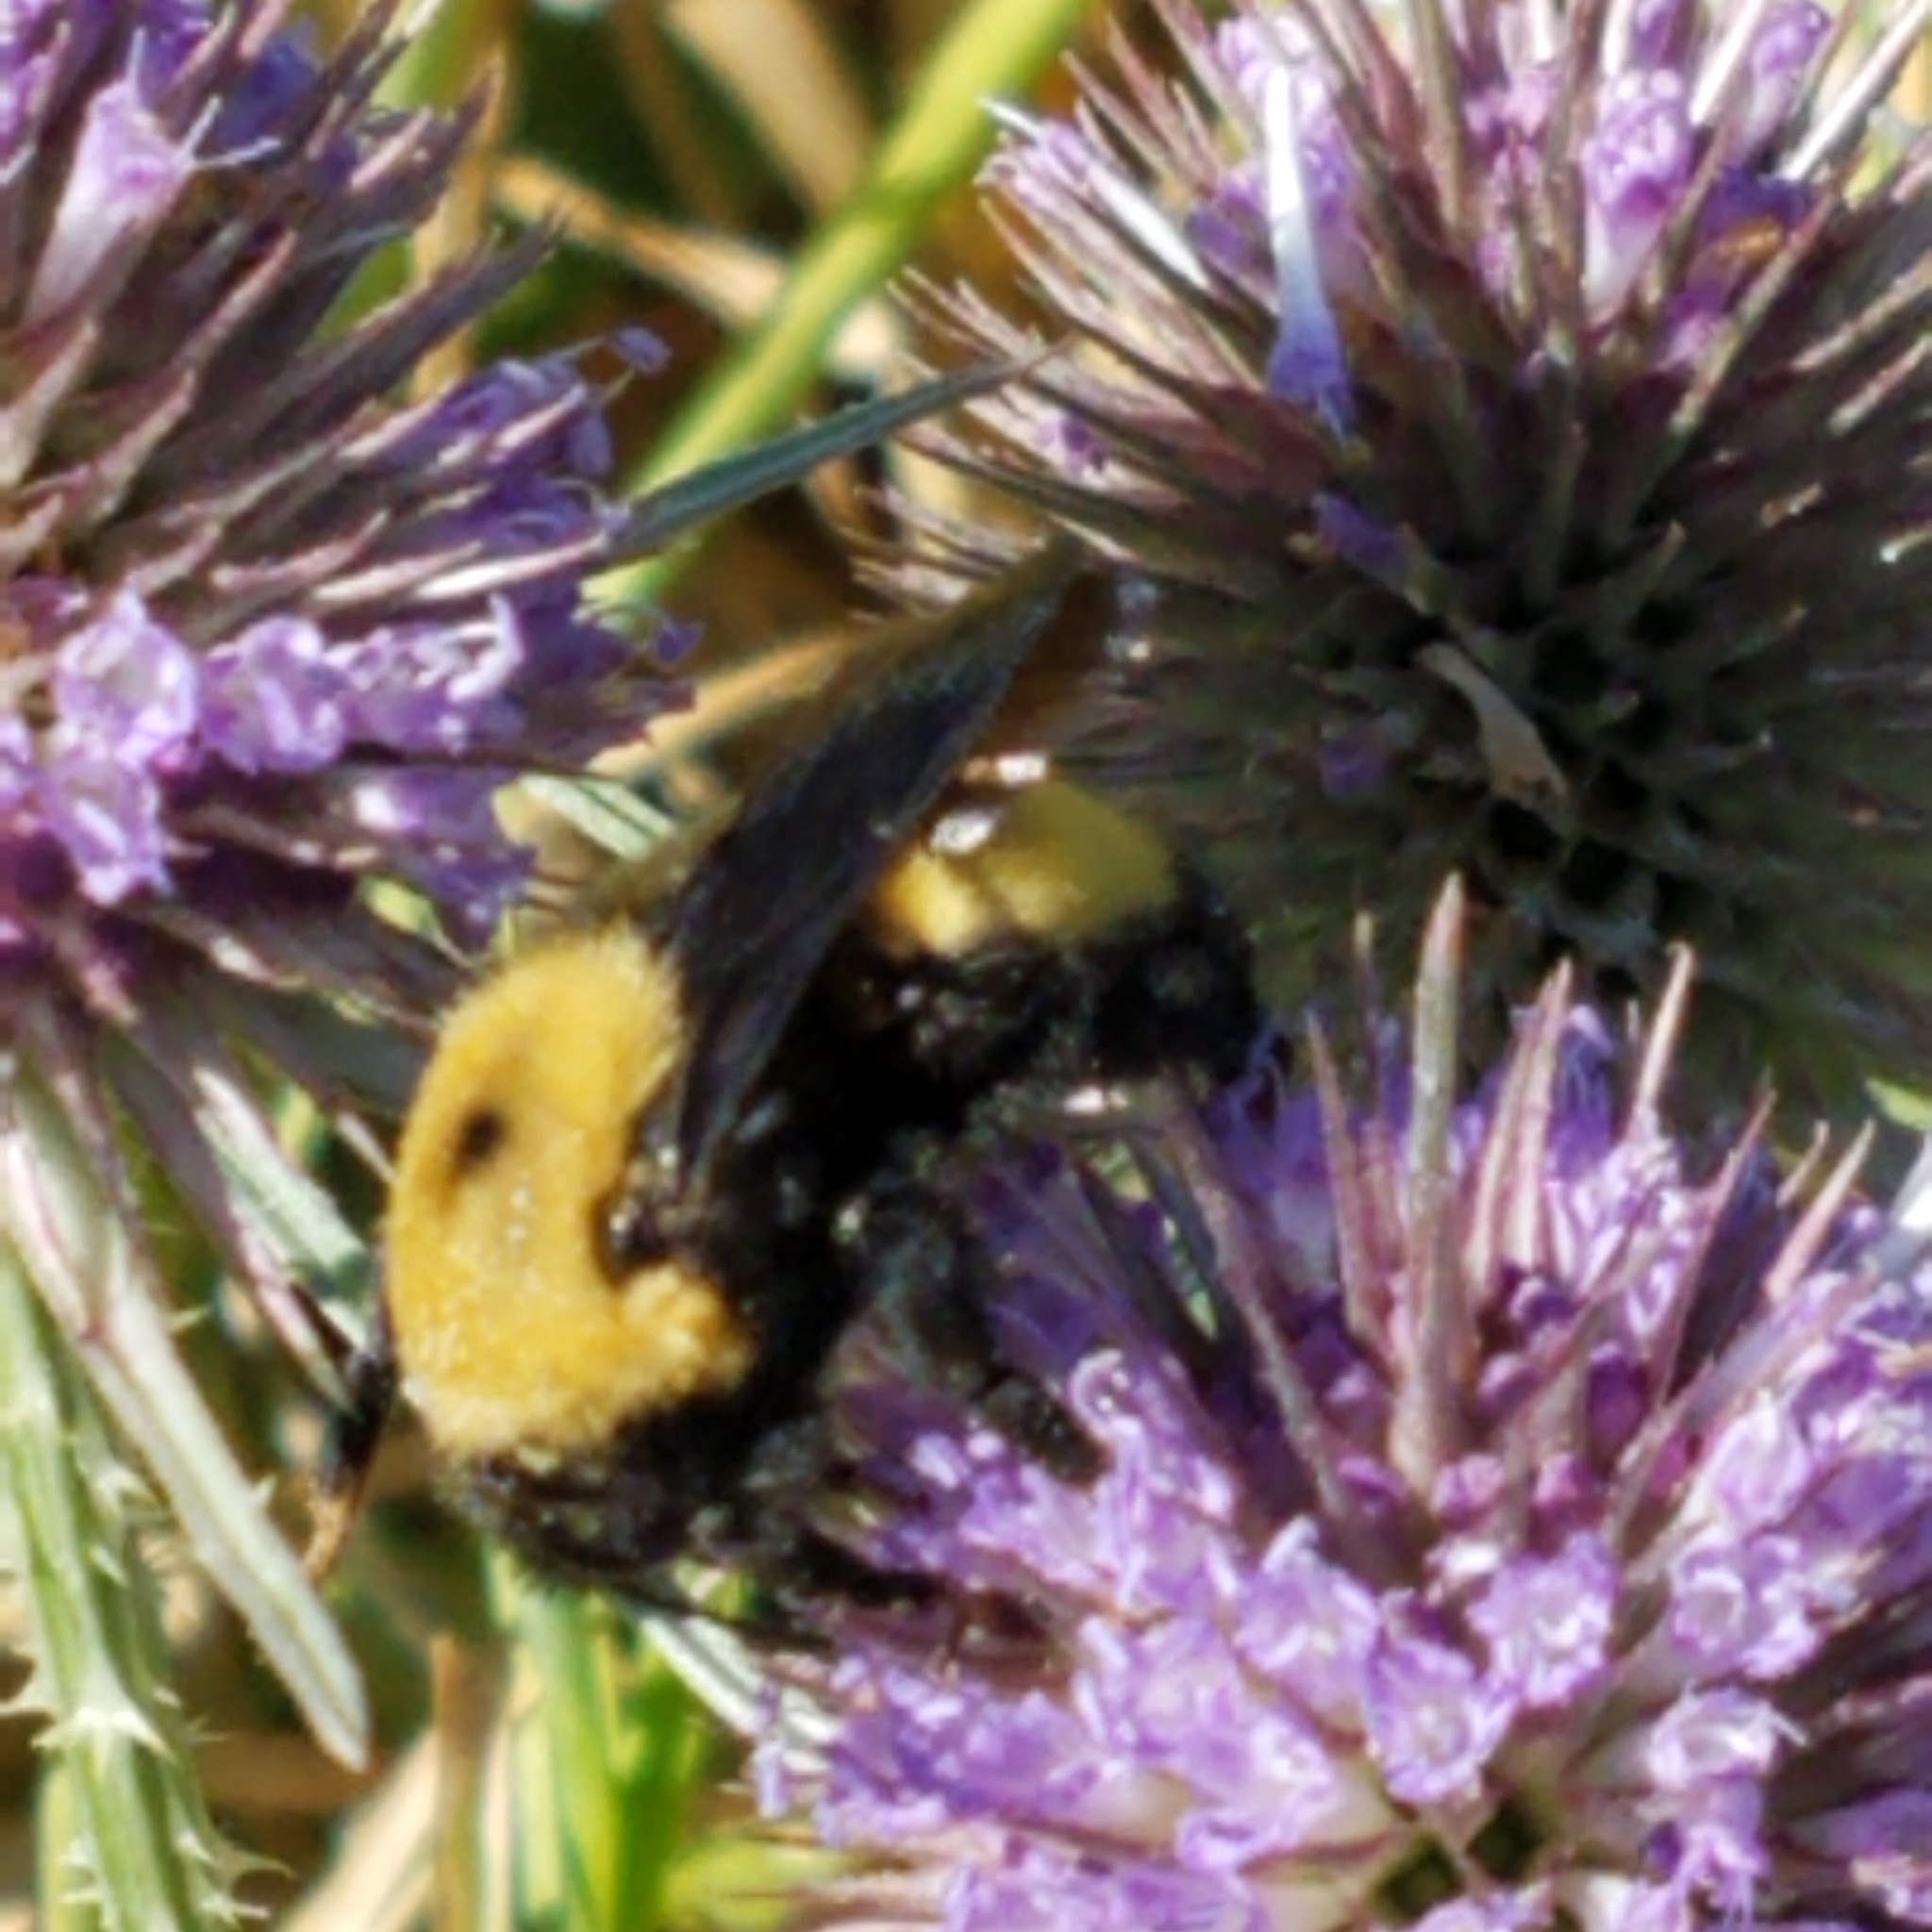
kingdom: Animalia
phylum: Arthropoda
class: Insecta
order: Hymenoptera
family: Apidae
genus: Bombus
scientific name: Bombus nevadensis
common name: Nevada bumble bee
